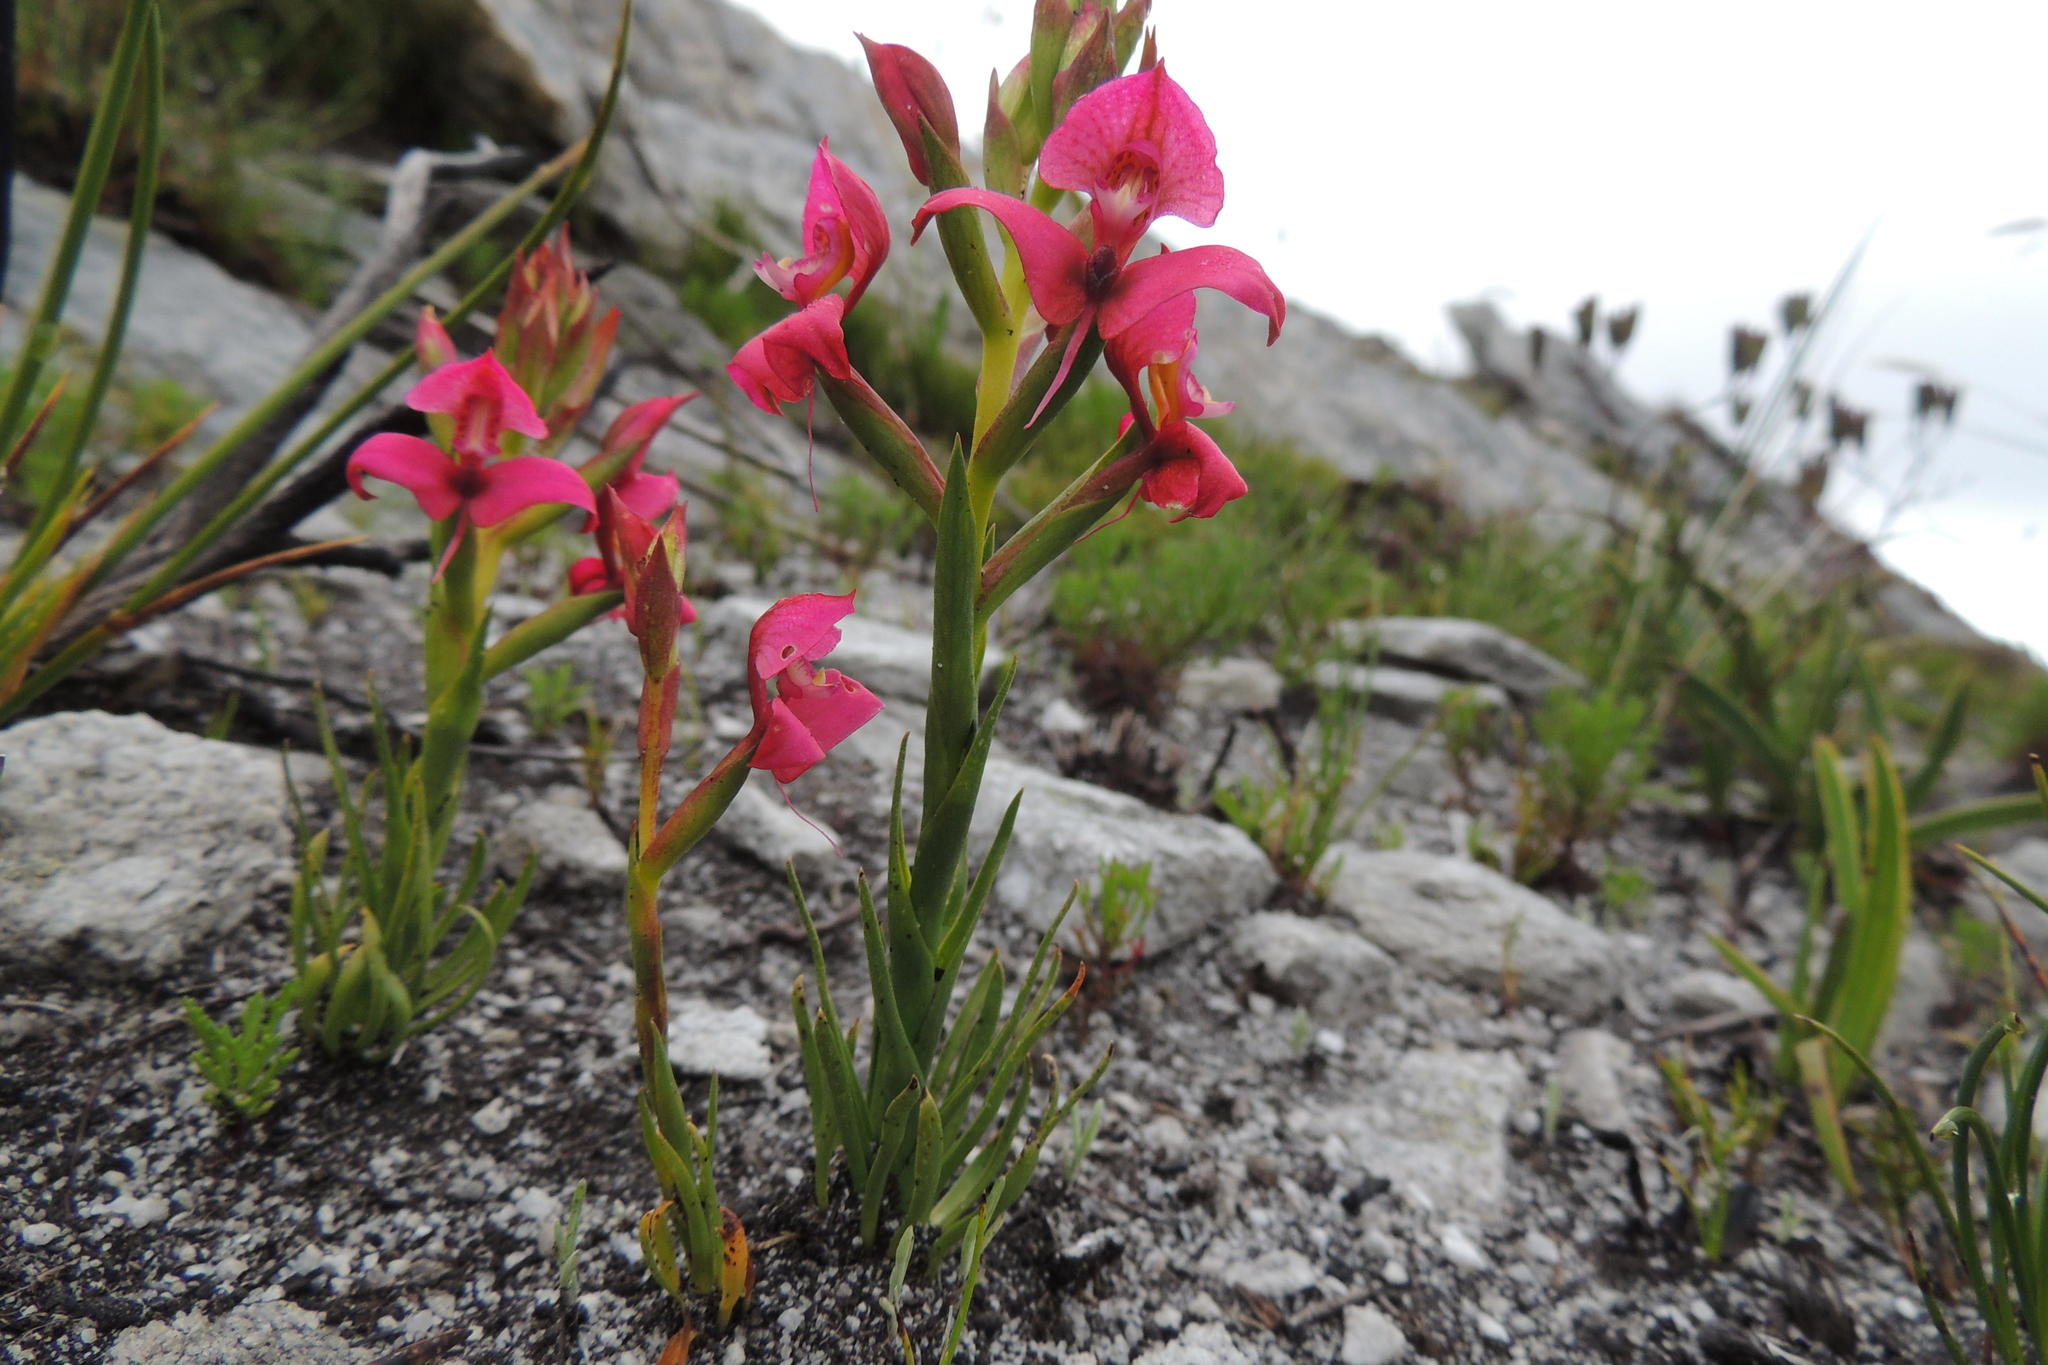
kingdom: Plantae
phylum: Tracheophyta
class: Liliopsida
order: Asparagales
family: Orchidaceae
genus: Disa
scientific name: Disa filicornis
